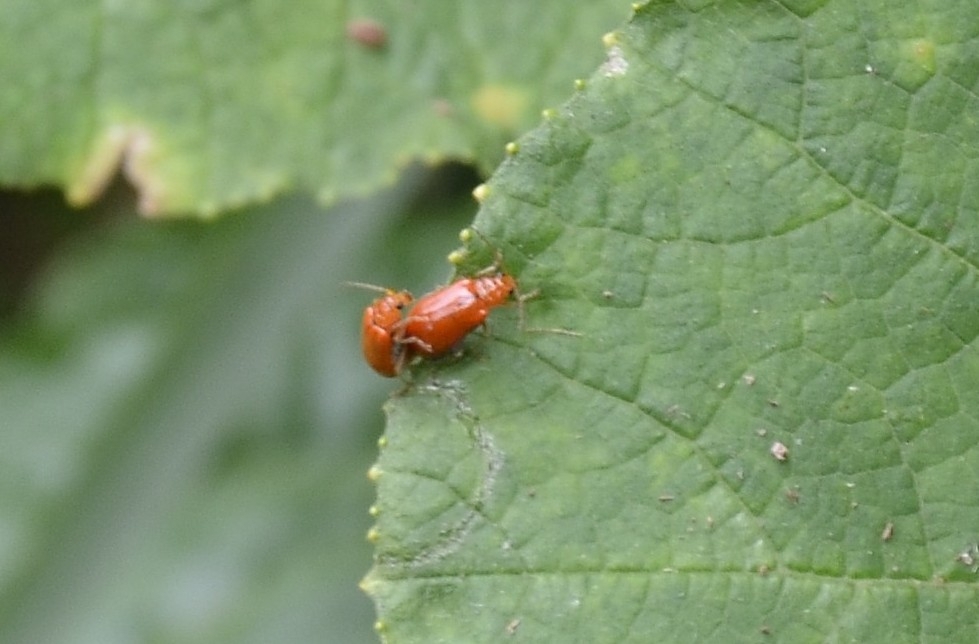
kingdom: Animalia
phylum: Arthropoda
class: Insecta
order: Coleoptera
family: Chrysomelidae
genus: Aulacophora
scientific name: Aulacophora indica
